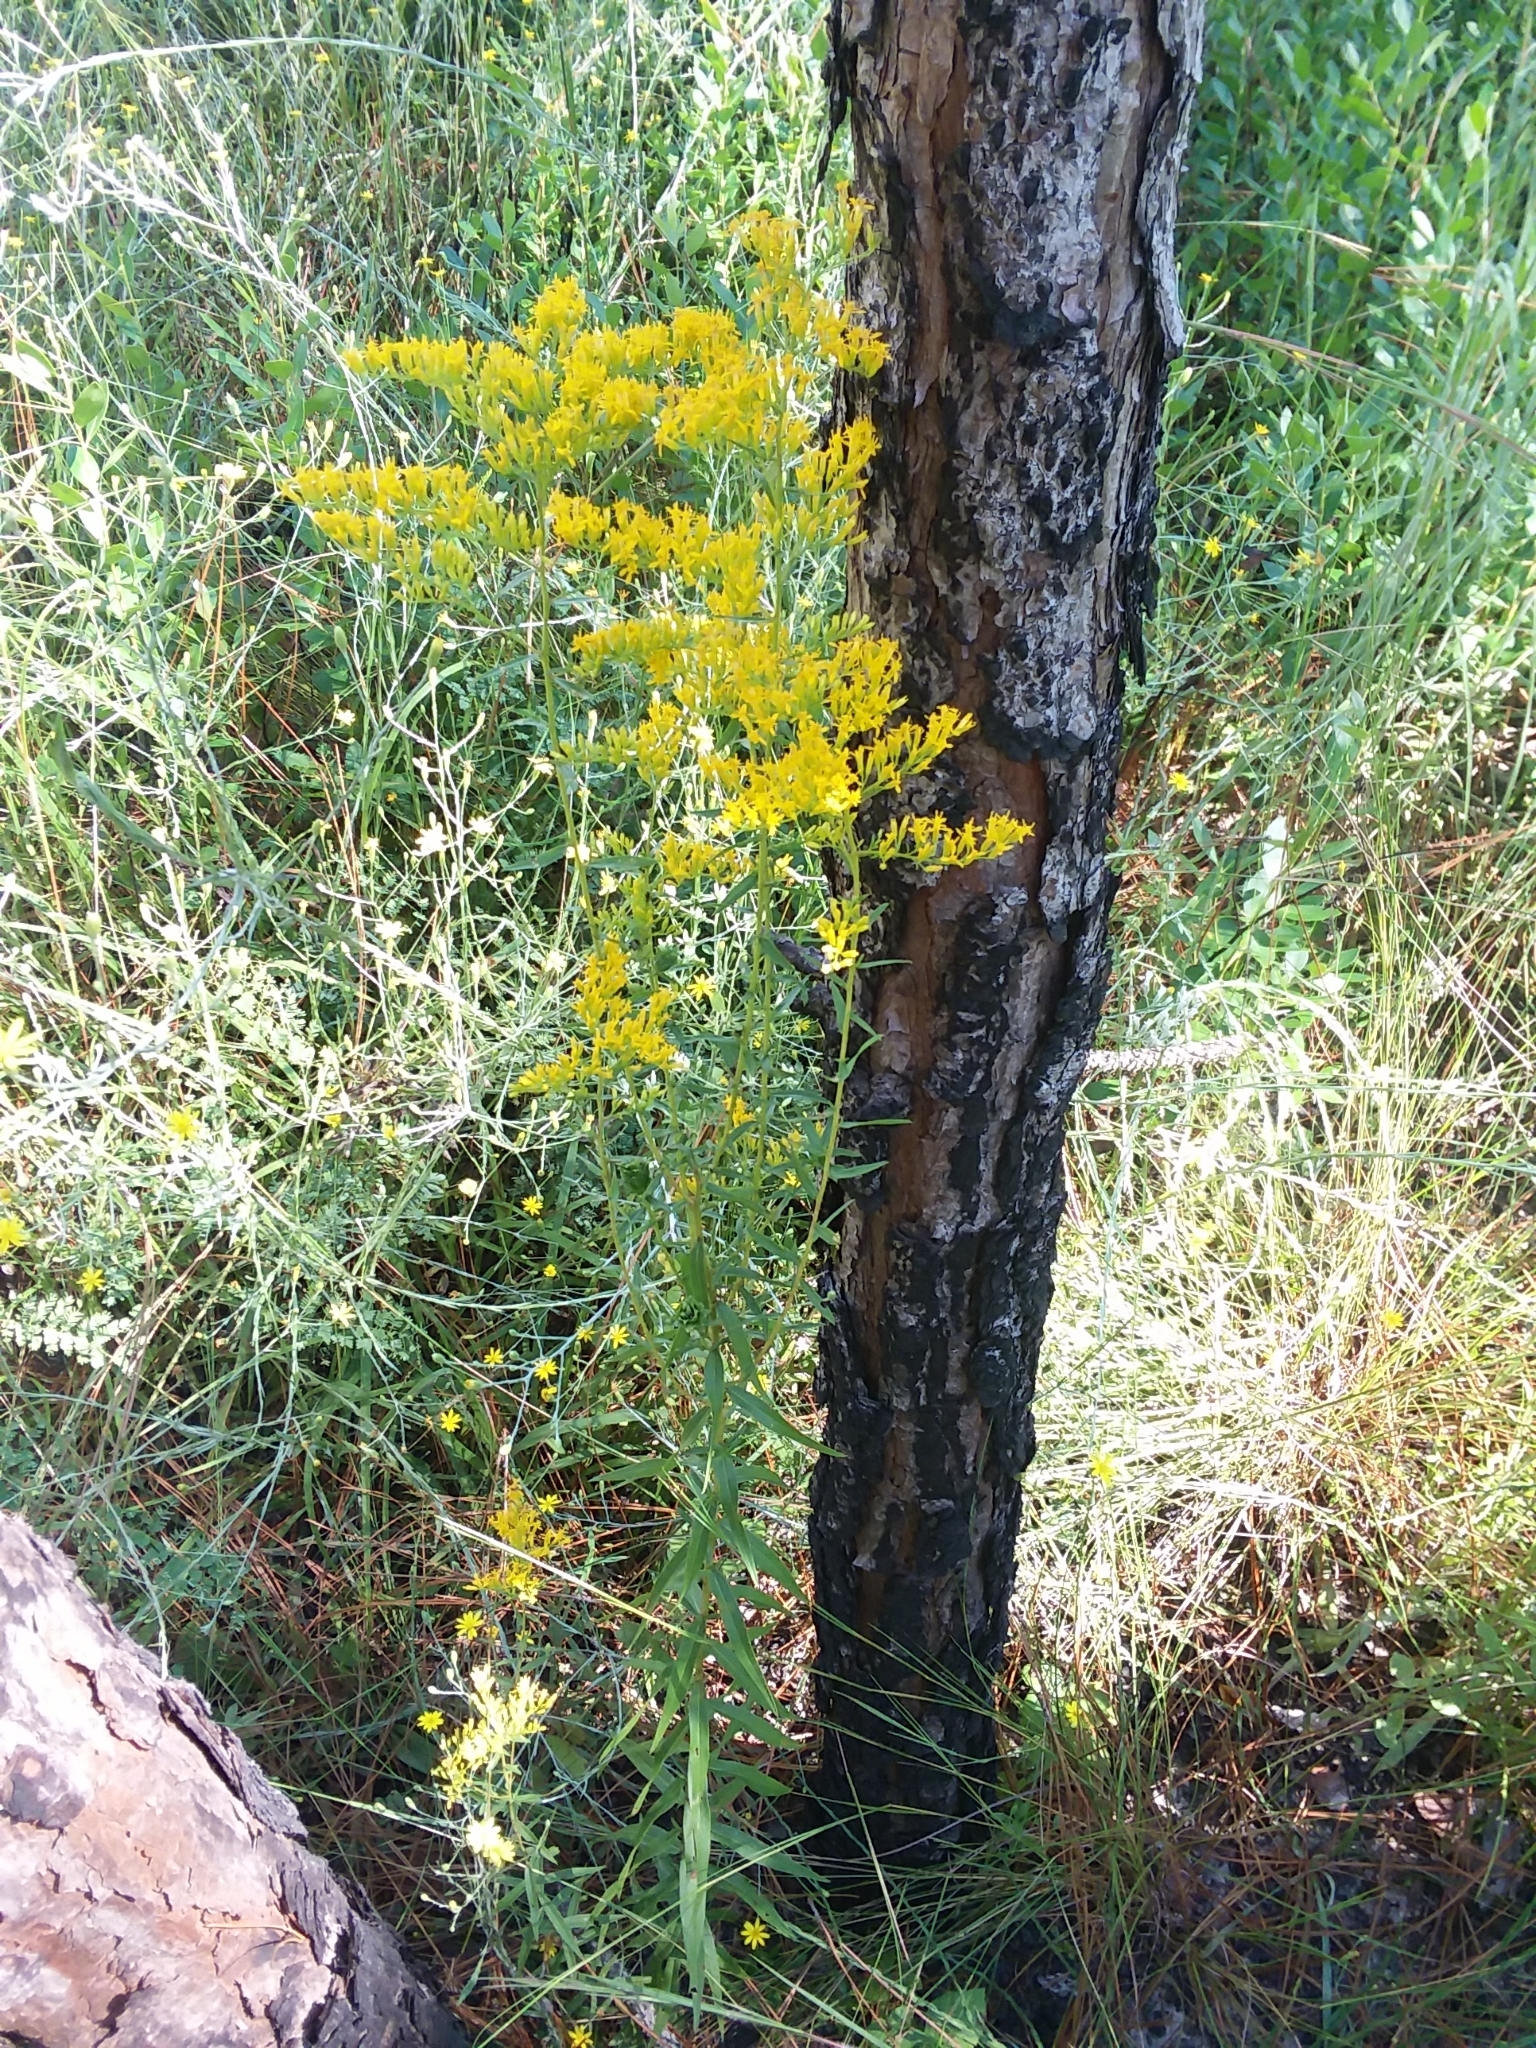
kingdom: Plantae
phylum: Tracheophyta
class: Magnoliopsida
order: Asterales
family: Asteraceae
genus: Solidago
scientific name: Solidago odora
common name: Anise-scented goldenrod
